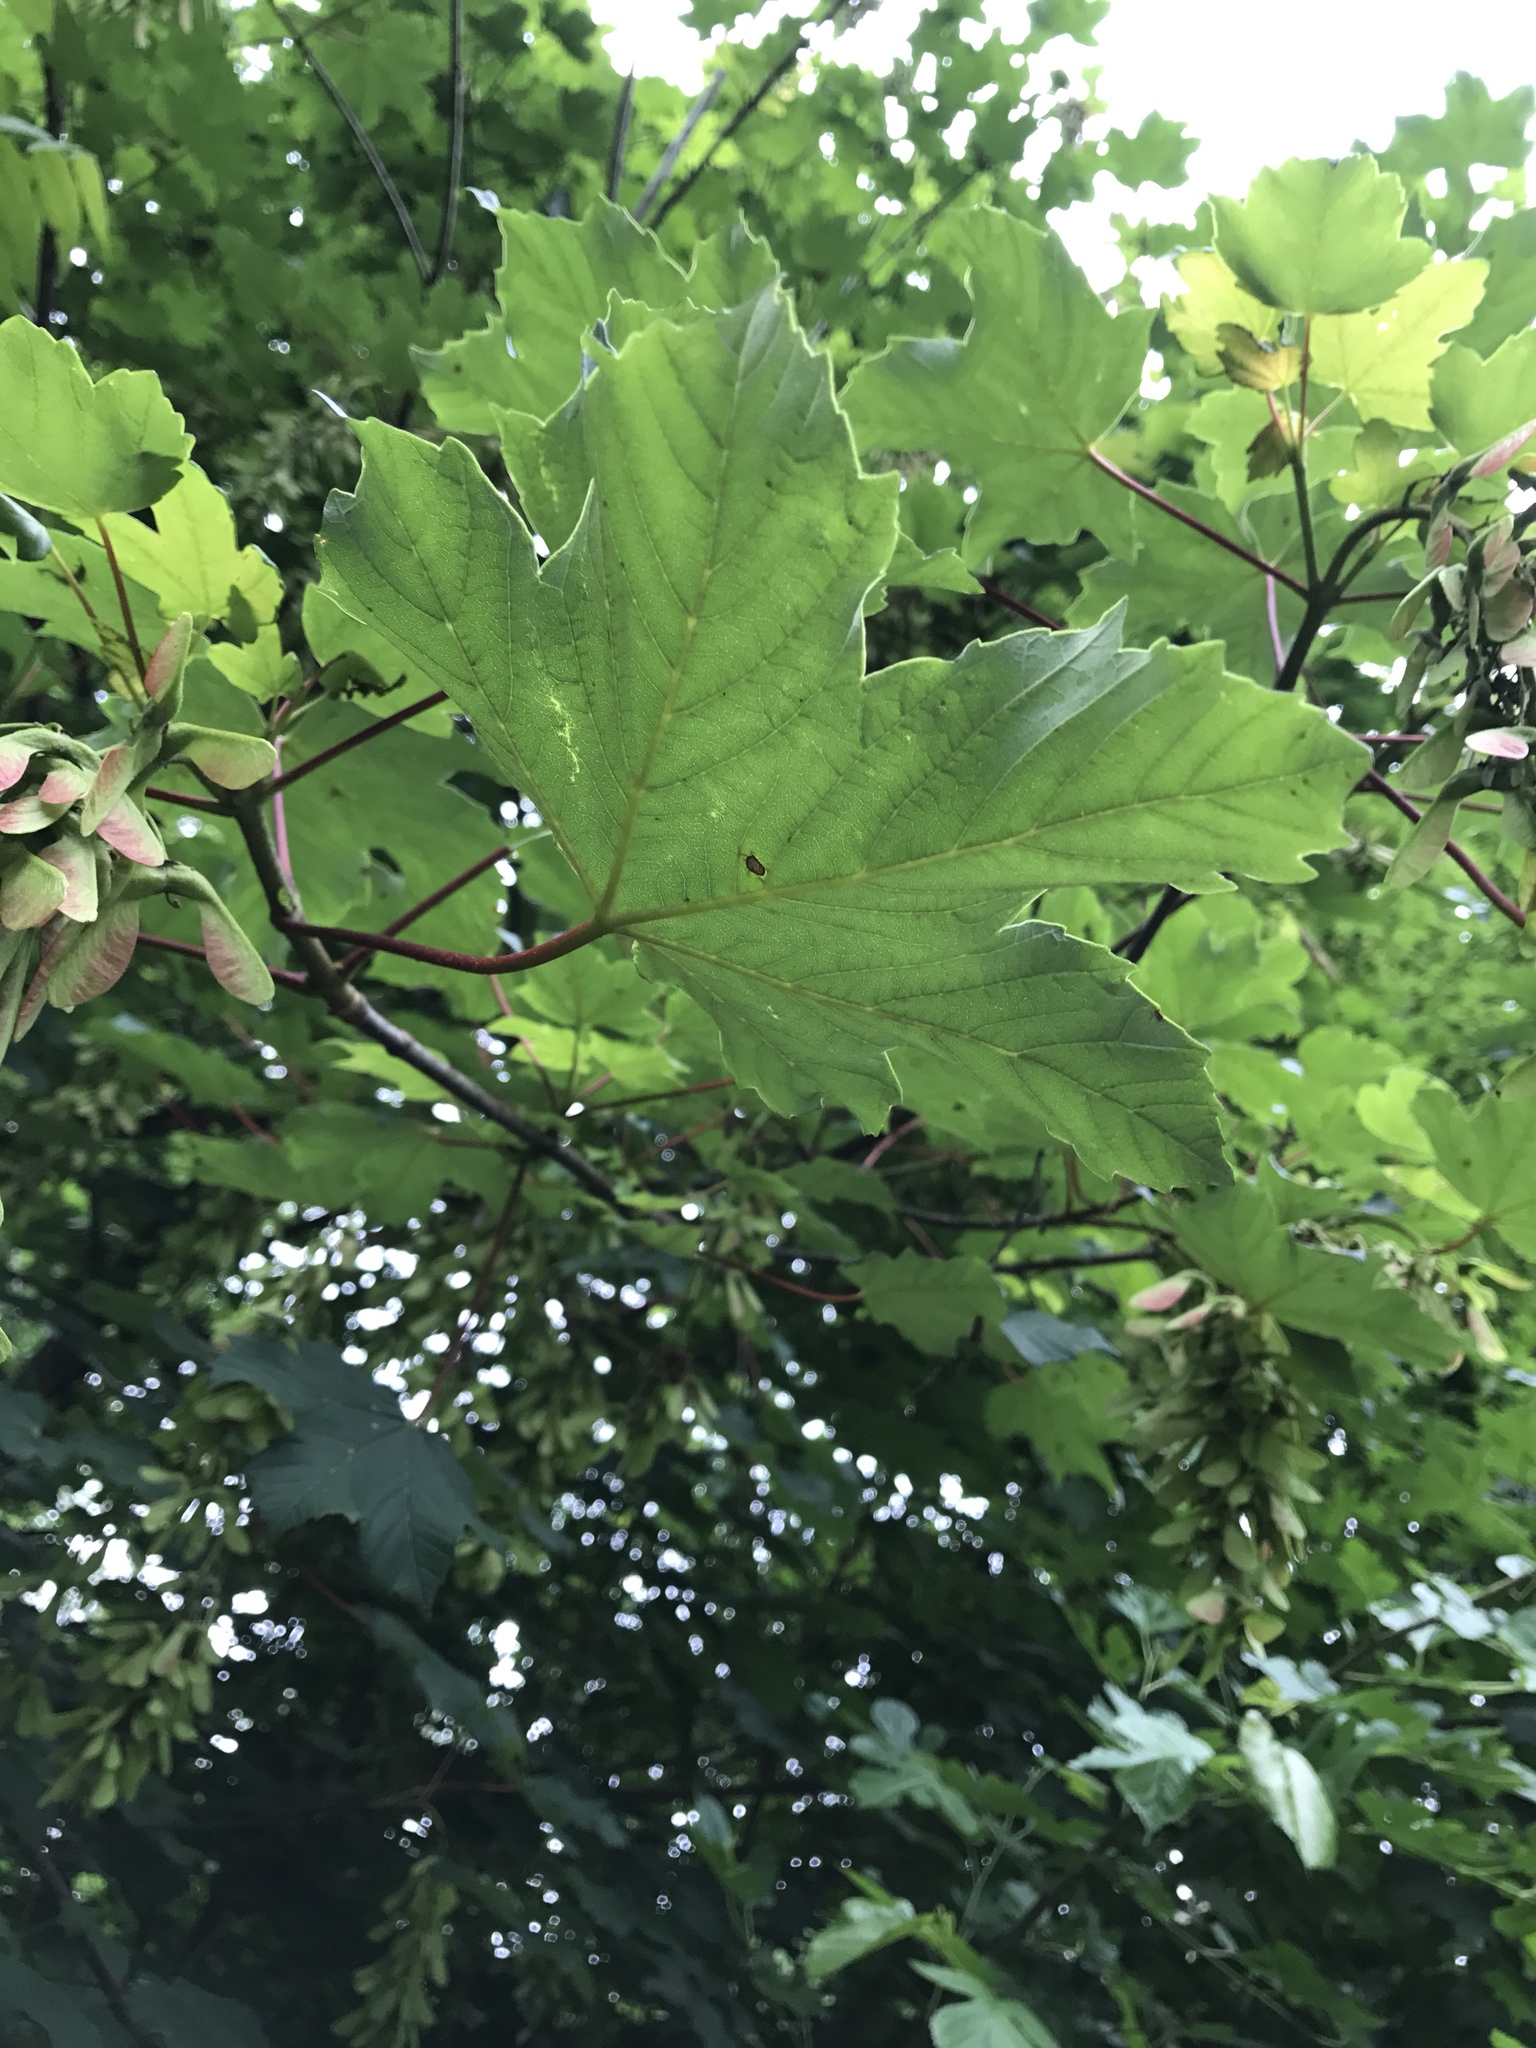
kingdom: Plantae
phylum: Tracheophyta
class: Magnoliopsida
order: Sapindales
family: Sapindaceae
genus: Acer
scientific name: Acer pseudoplatanus
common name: Sycamore
